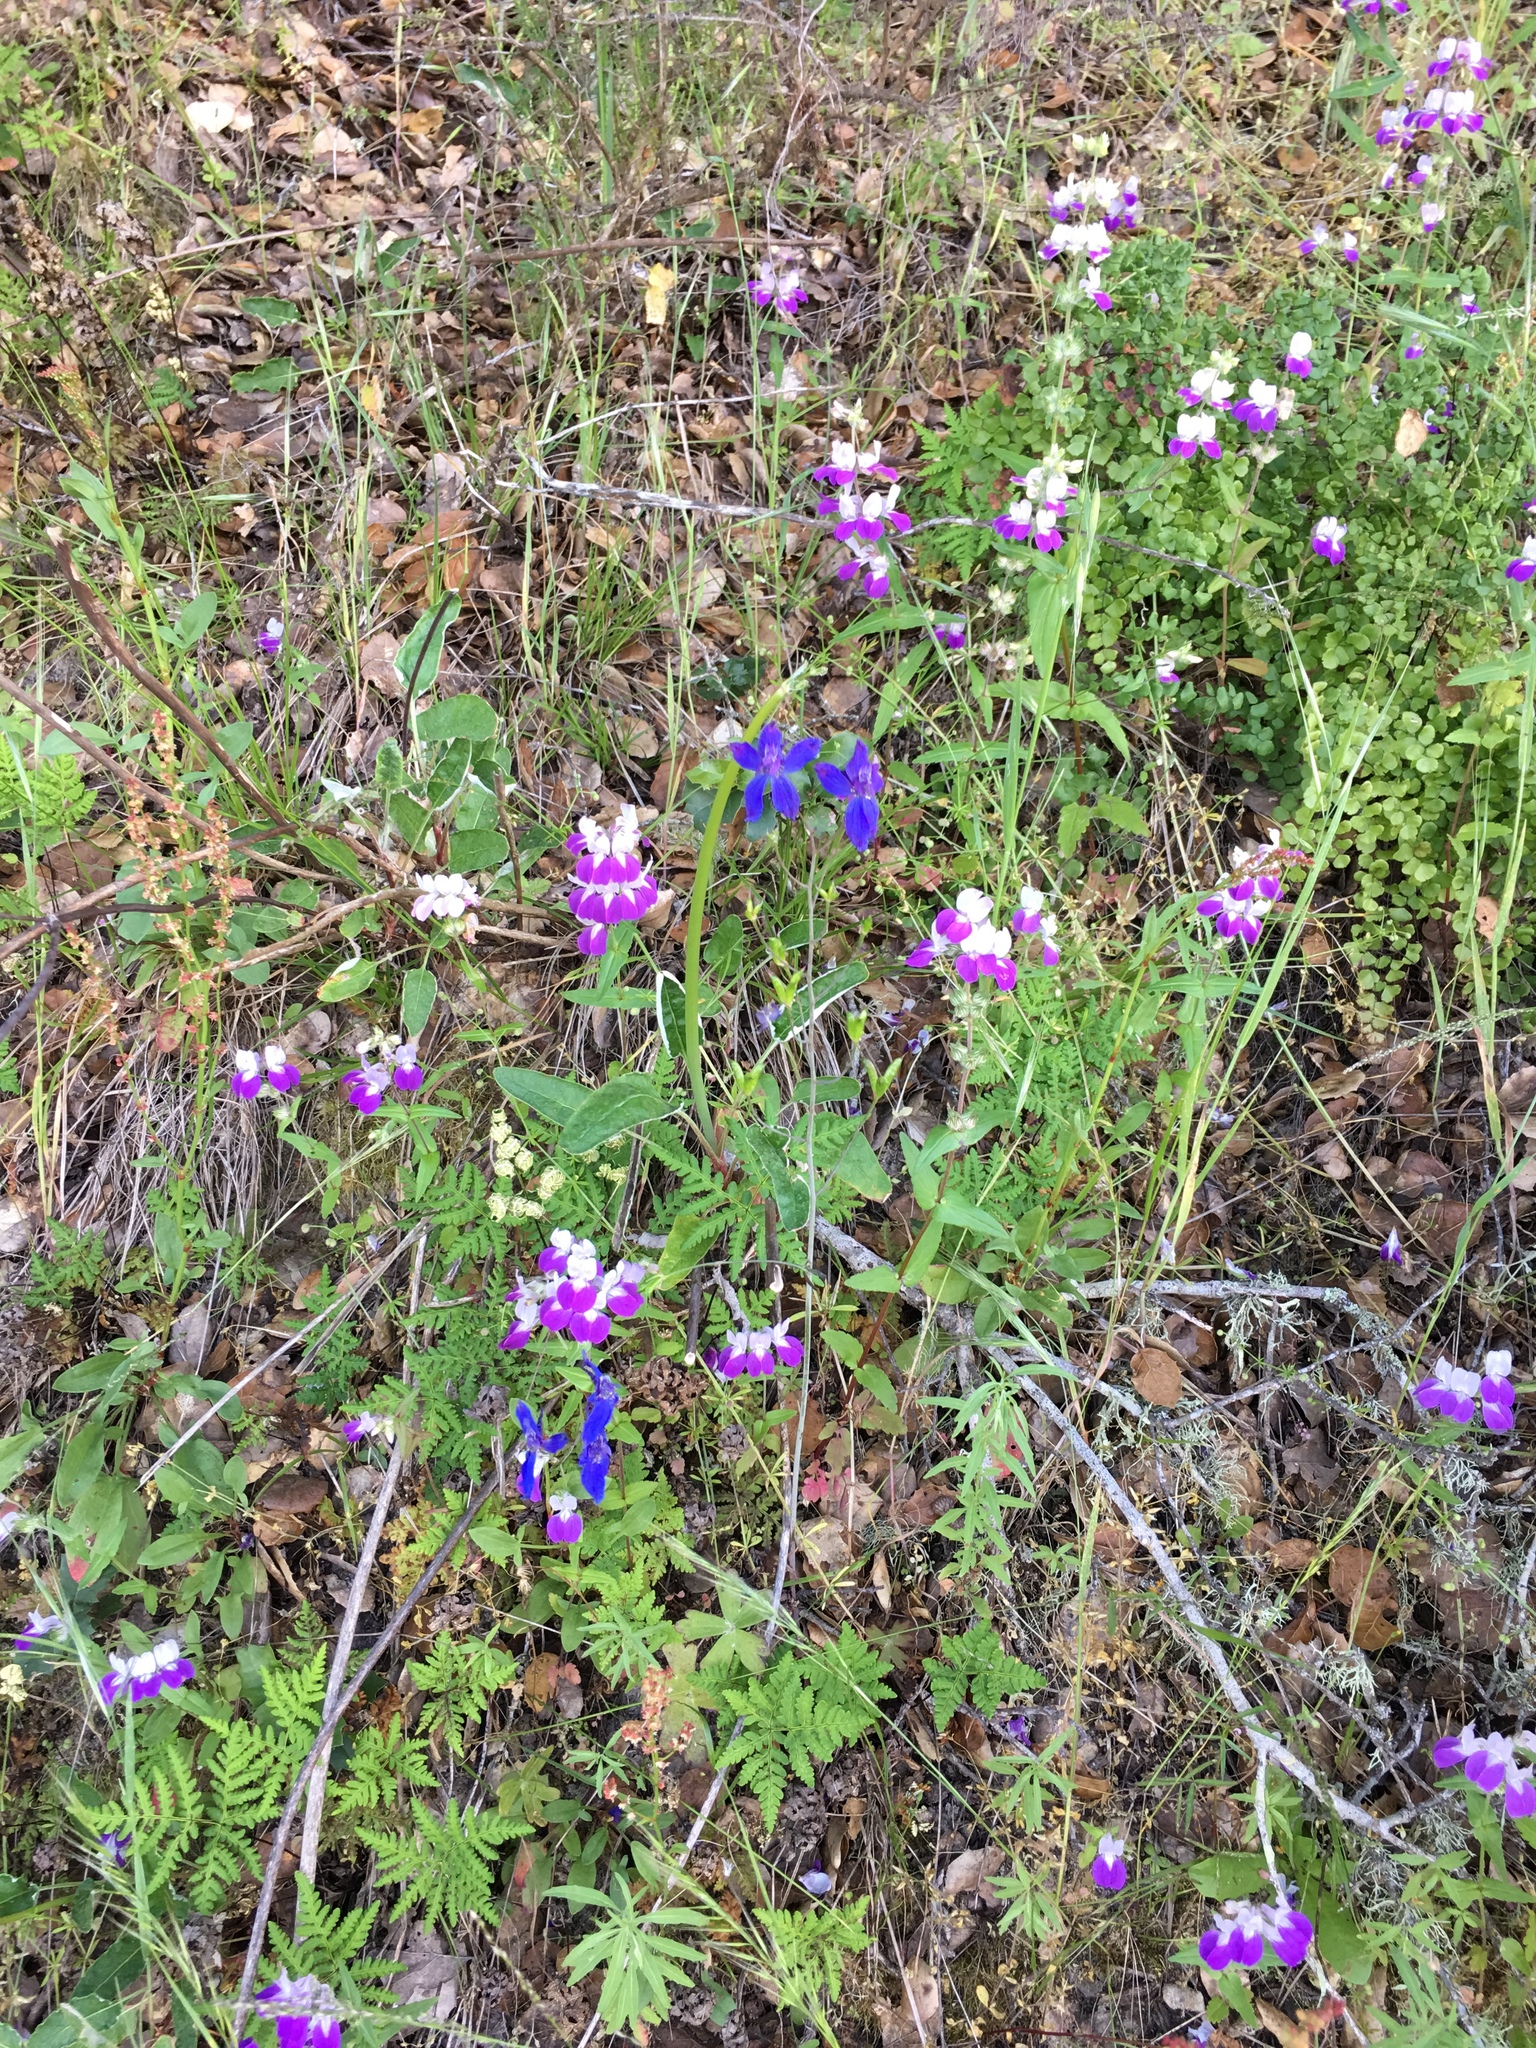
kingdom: Plantae
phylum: Tracheophyta
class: Magnoliopsida
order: Ranunculales
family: Ranunculaceae
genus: Delphinium
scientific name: Delphinium patens
